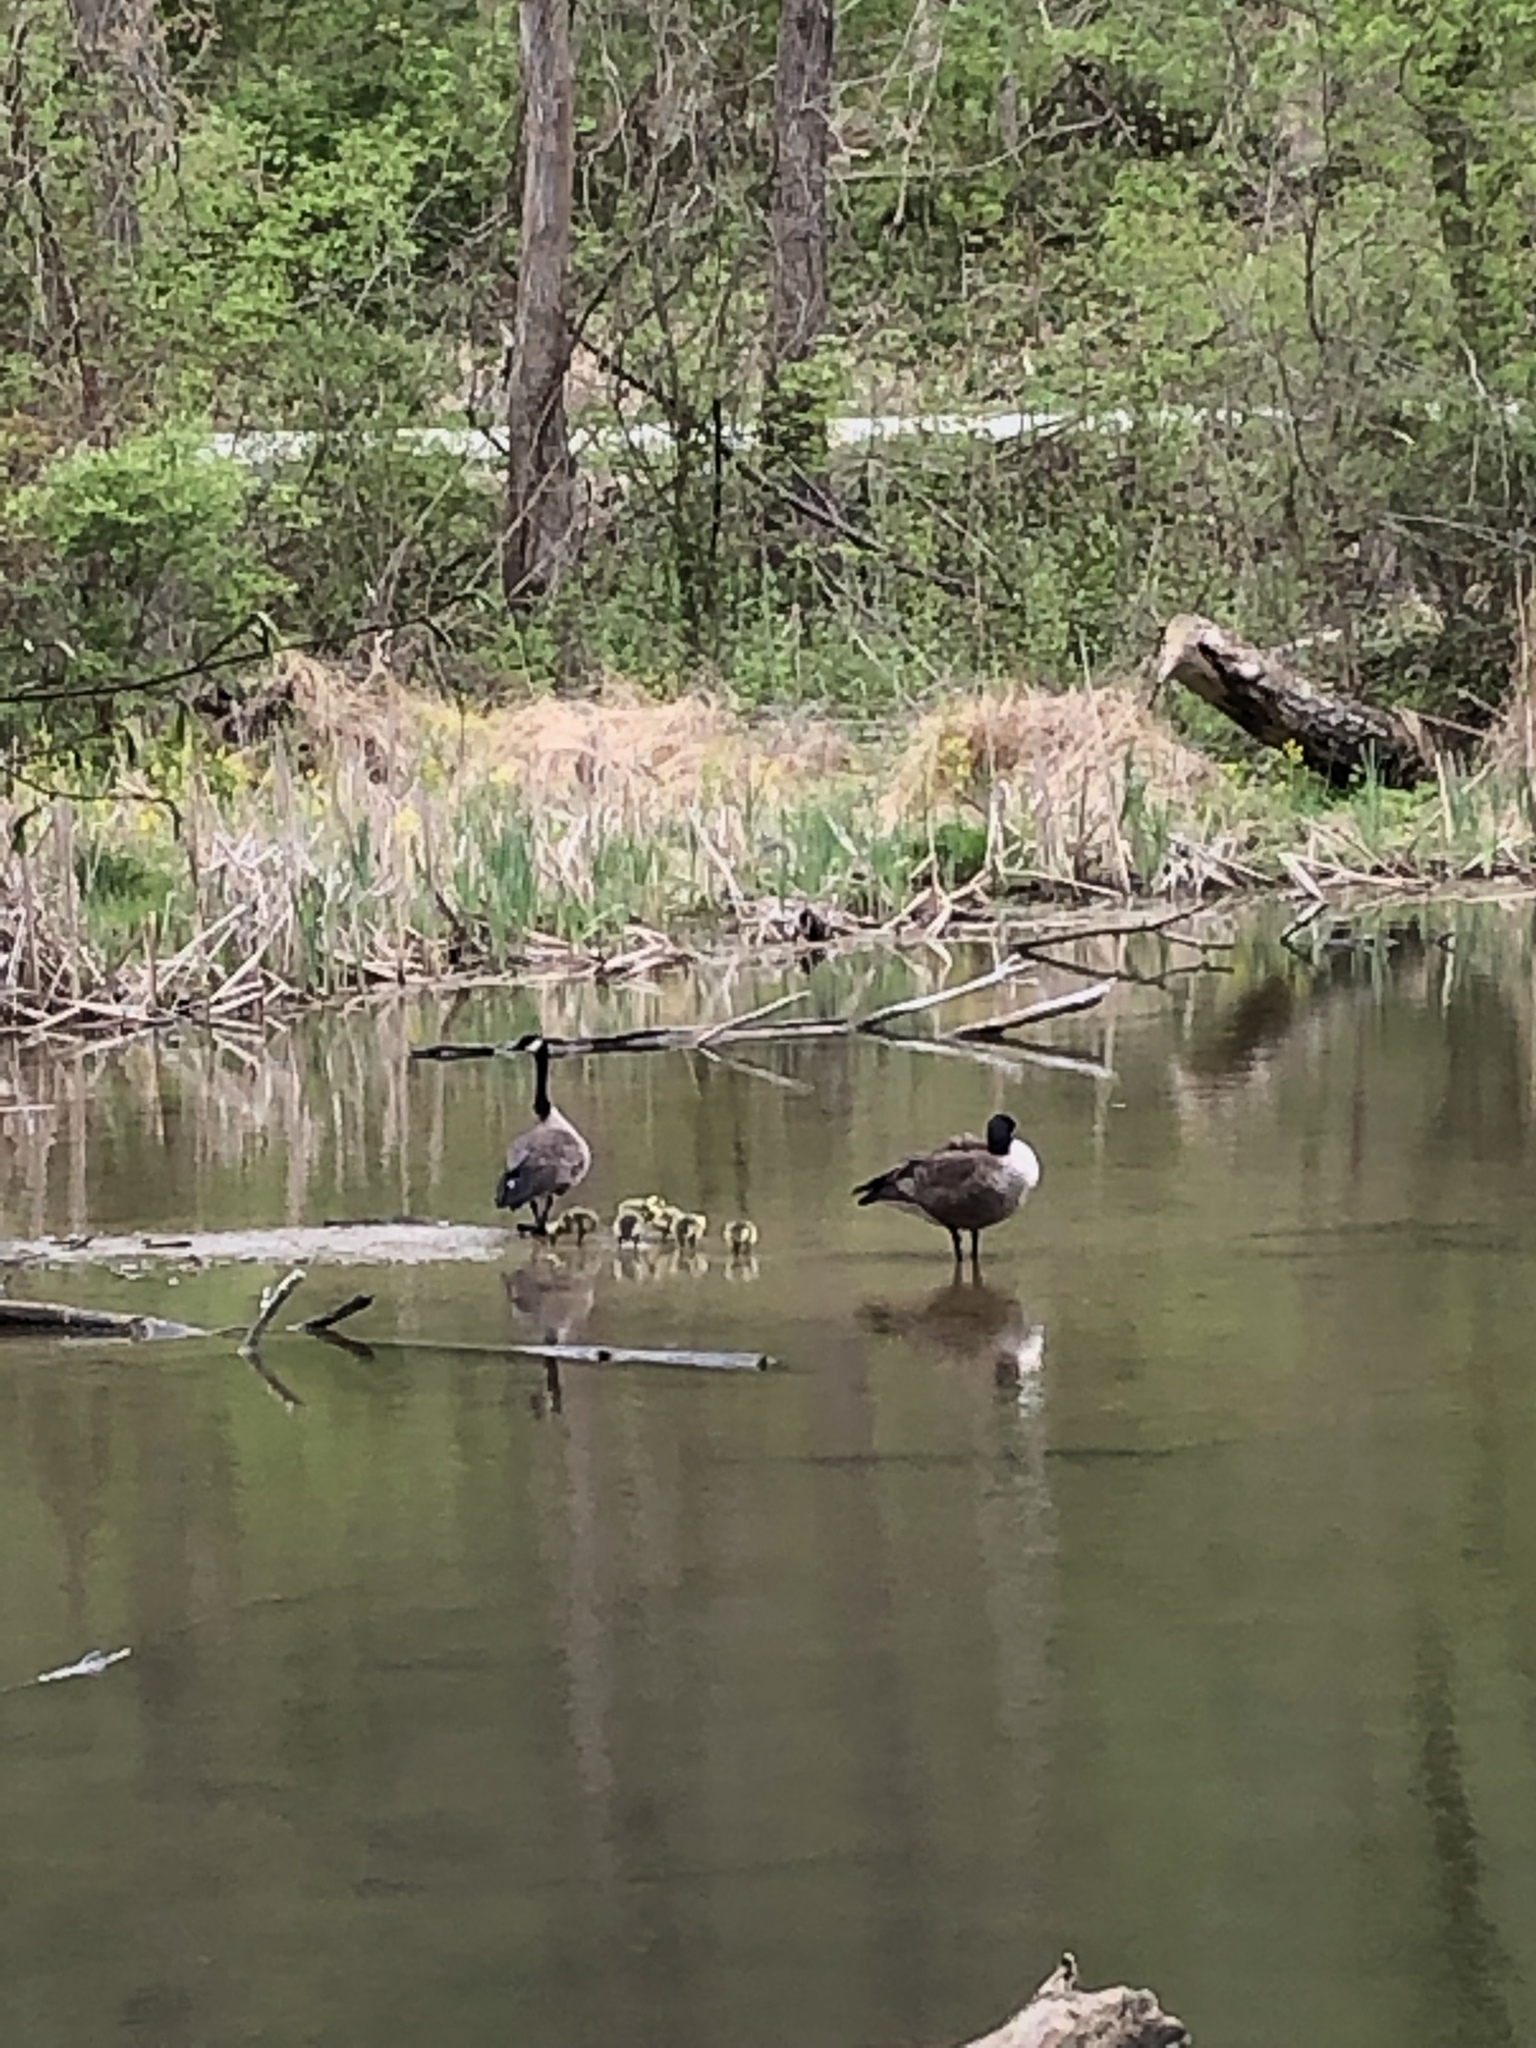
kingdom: Animalia
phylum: Chordata
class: Aves
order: Anseriformes
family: Anatidae
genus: Branta
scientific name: Branta canadensis
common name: Canada goose
